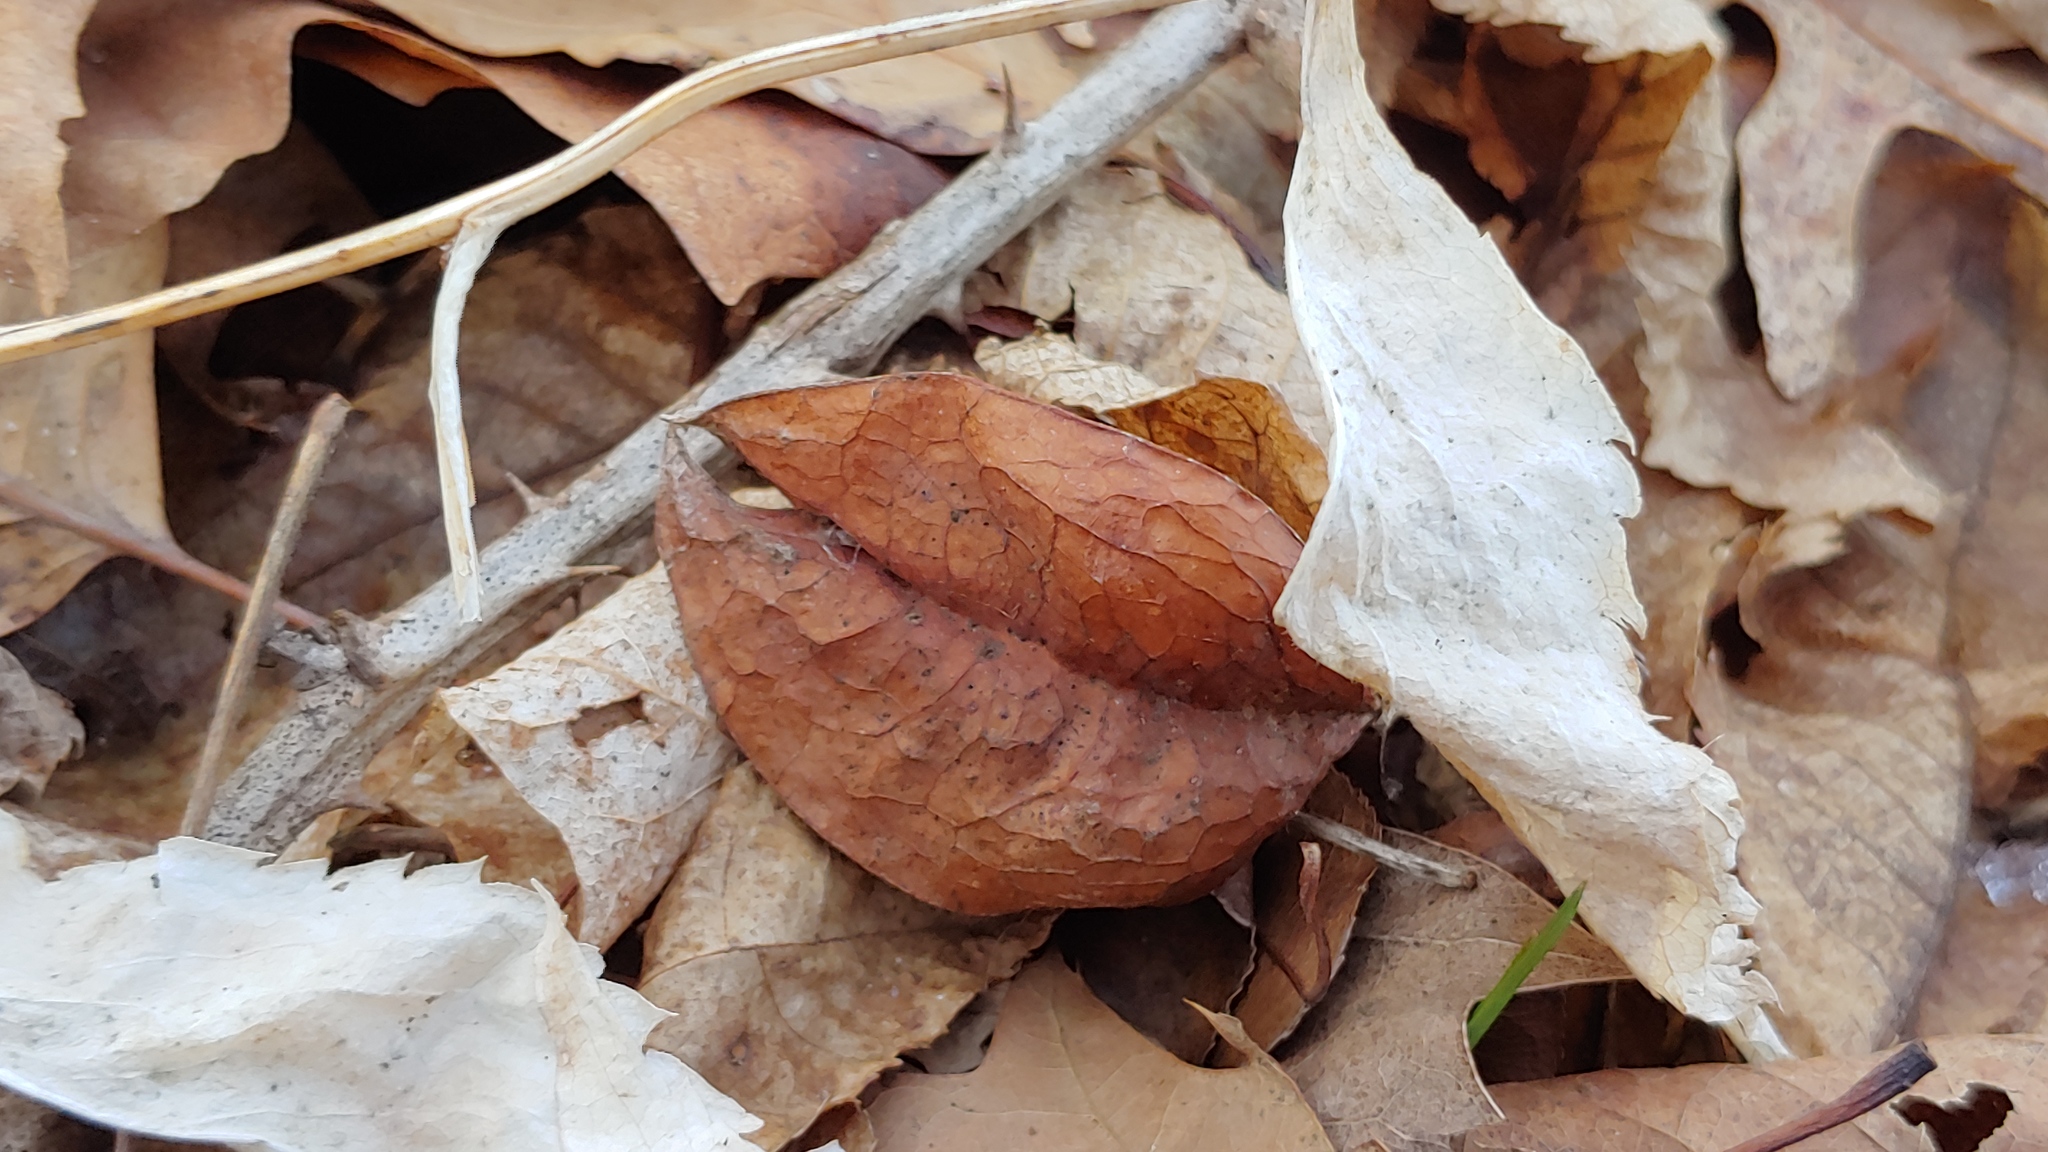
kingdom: Plantae
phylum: Tracheophyta
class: Magnoliopsida
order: Crossosomatales
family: Staphyleaceae
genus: Staphylea
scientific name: Staphylea trifolia
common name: American bladdernut
